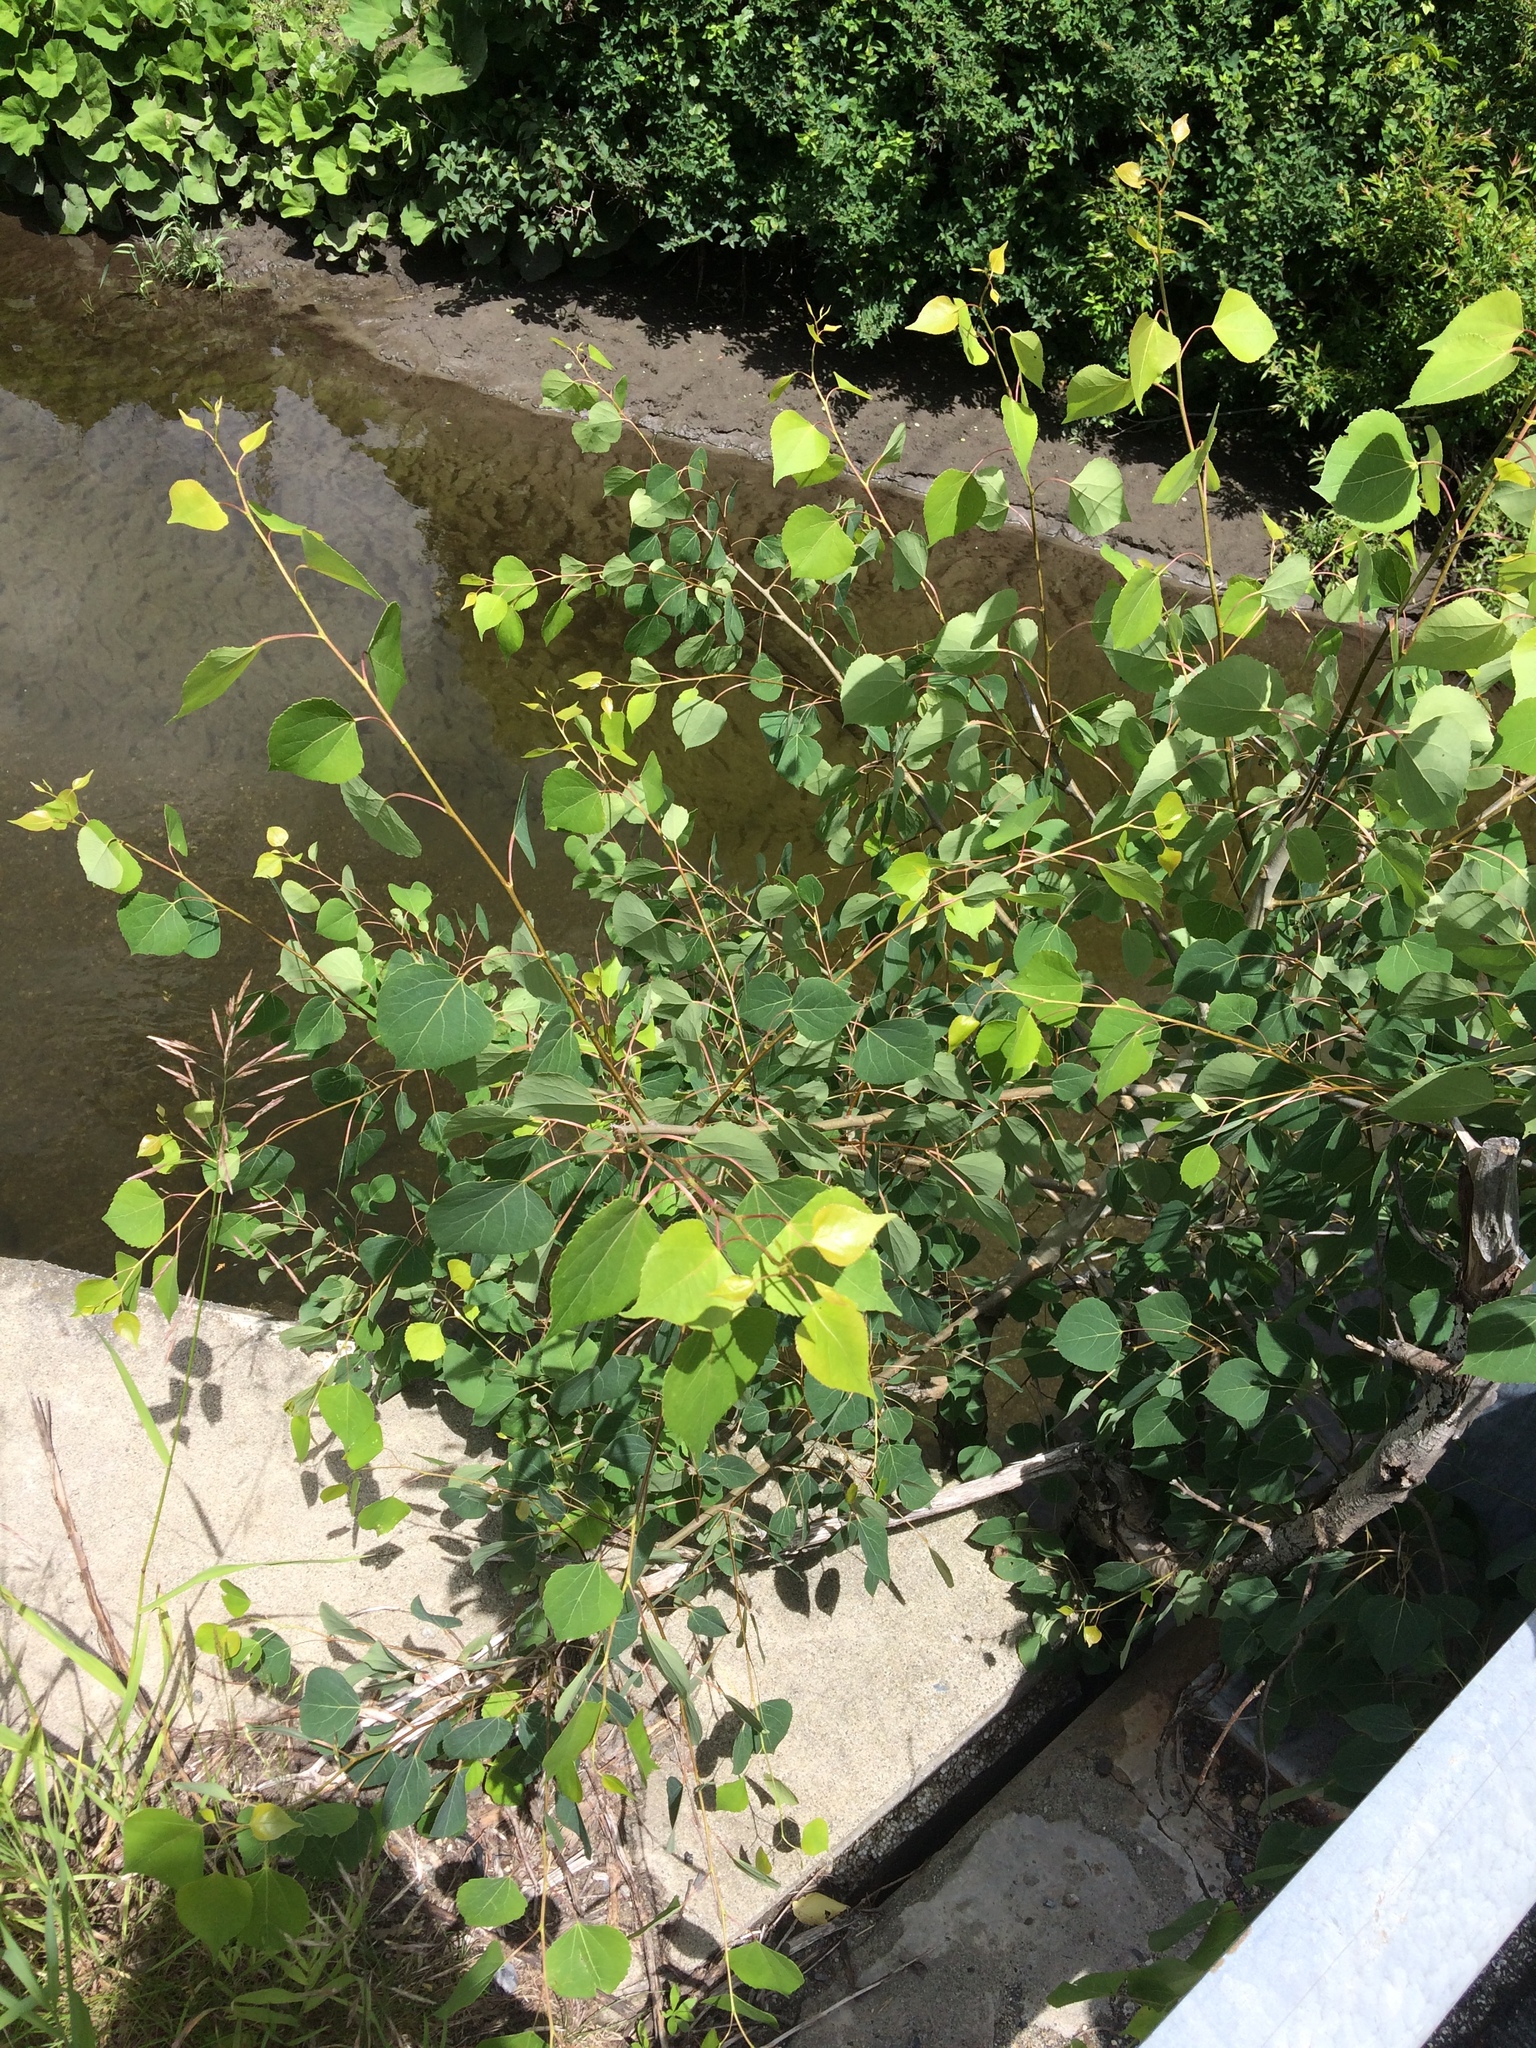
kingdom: Plantae
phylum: Tracheophyta
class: Magnoliopsida
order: Malpighiales
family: Salicaceae
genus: Populus
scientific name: Populus tremuloides
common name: Quaking aspen
